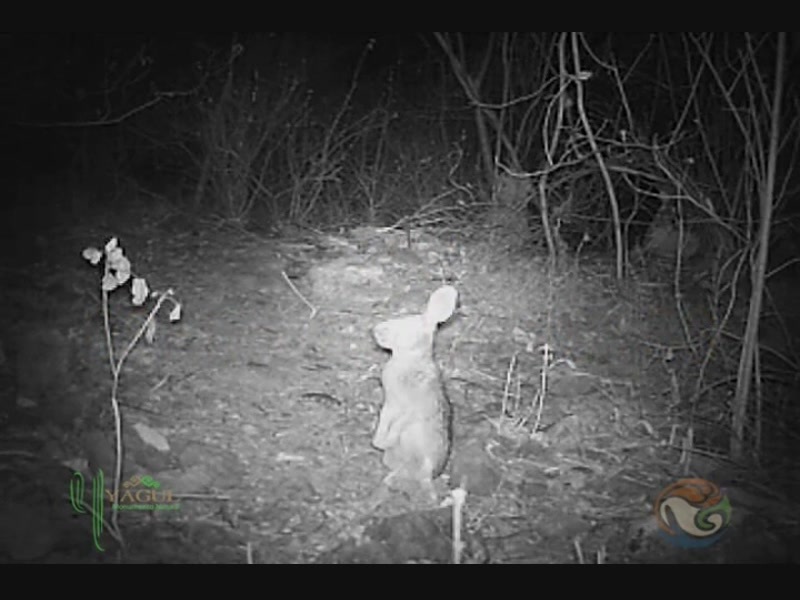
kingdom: Animalia
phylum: Chordata
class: Mammalia
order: Lagomorpha
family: Leporidae
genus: Sylvilagus
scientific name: Sylvilagus floridanus
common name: Eastern cottontail
